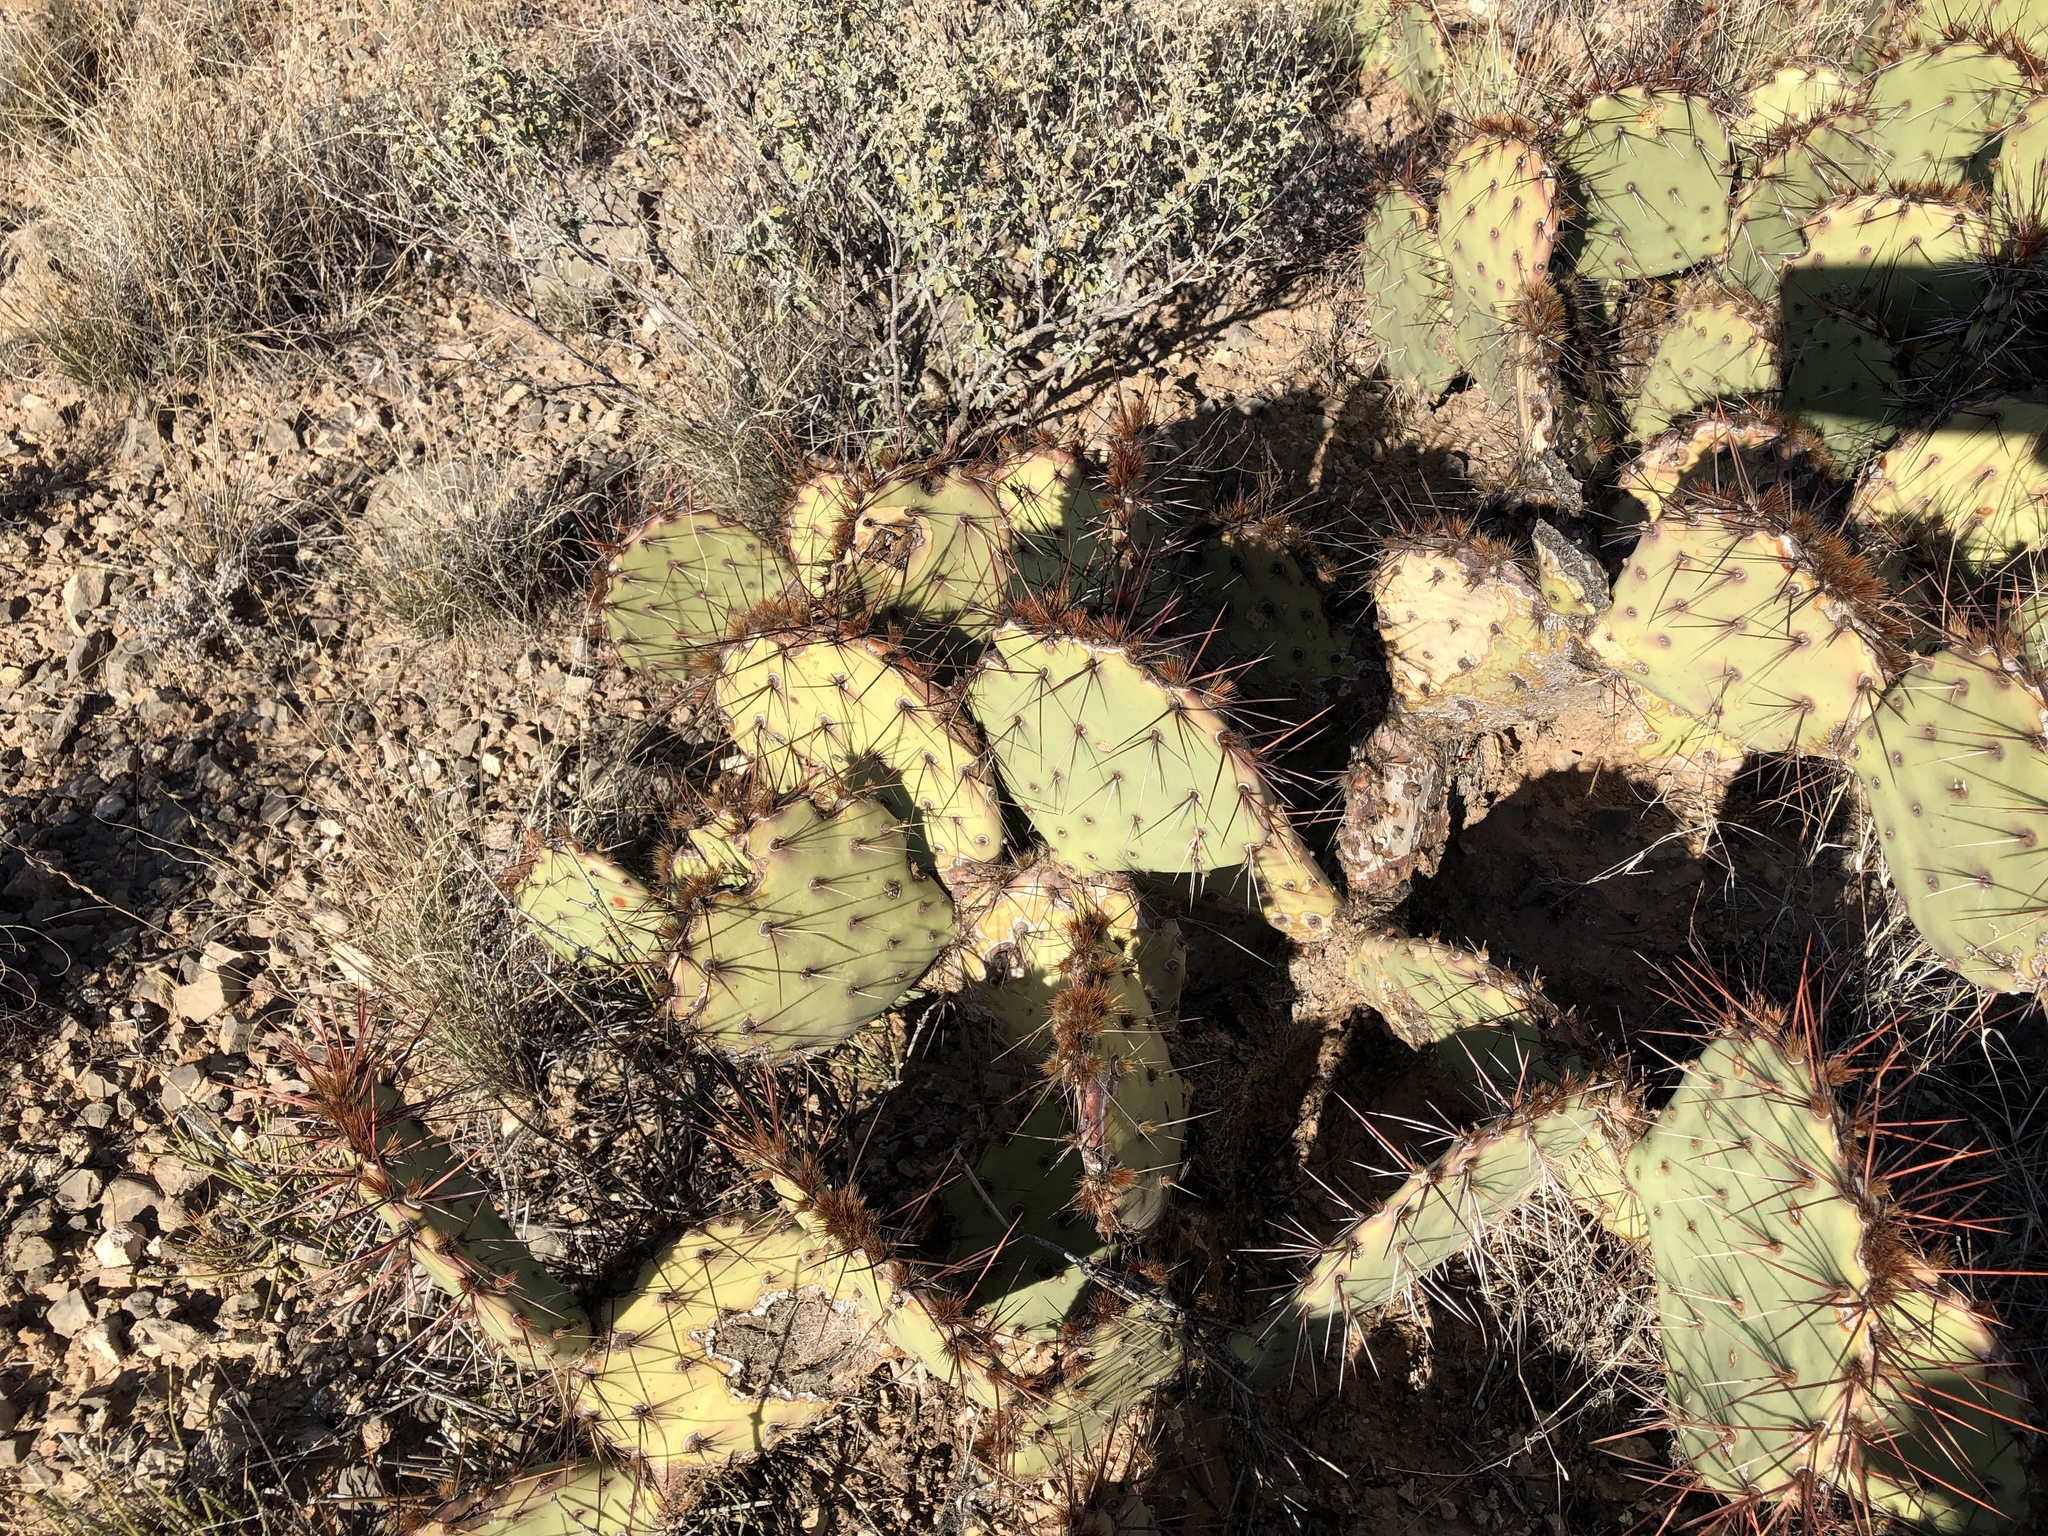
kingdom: Plantae
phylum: Tracheophyta
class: Magnoliopsida
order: Caryophyllales
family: Cactaceae
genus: Opuntia
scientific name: Opuntia phaeacantha
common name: New mexico prickly-pear
